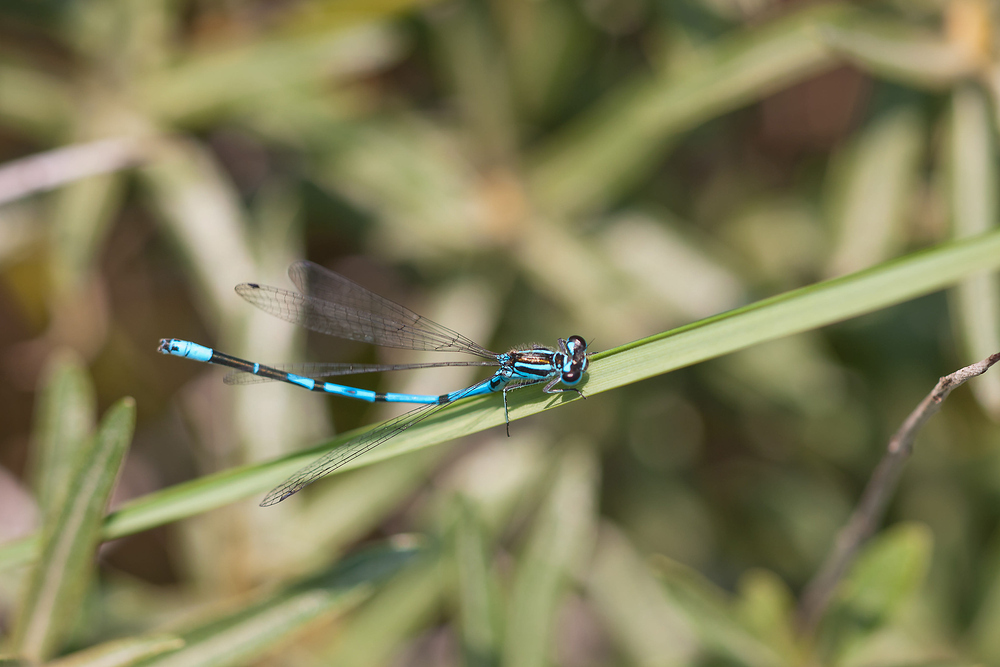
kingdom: Animalia
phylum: Arthropoda
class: Insecta
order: Odonata
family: Coenagrionidae
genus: Coenagrion
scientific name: Coenagrion puella
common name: Azure damselfly
